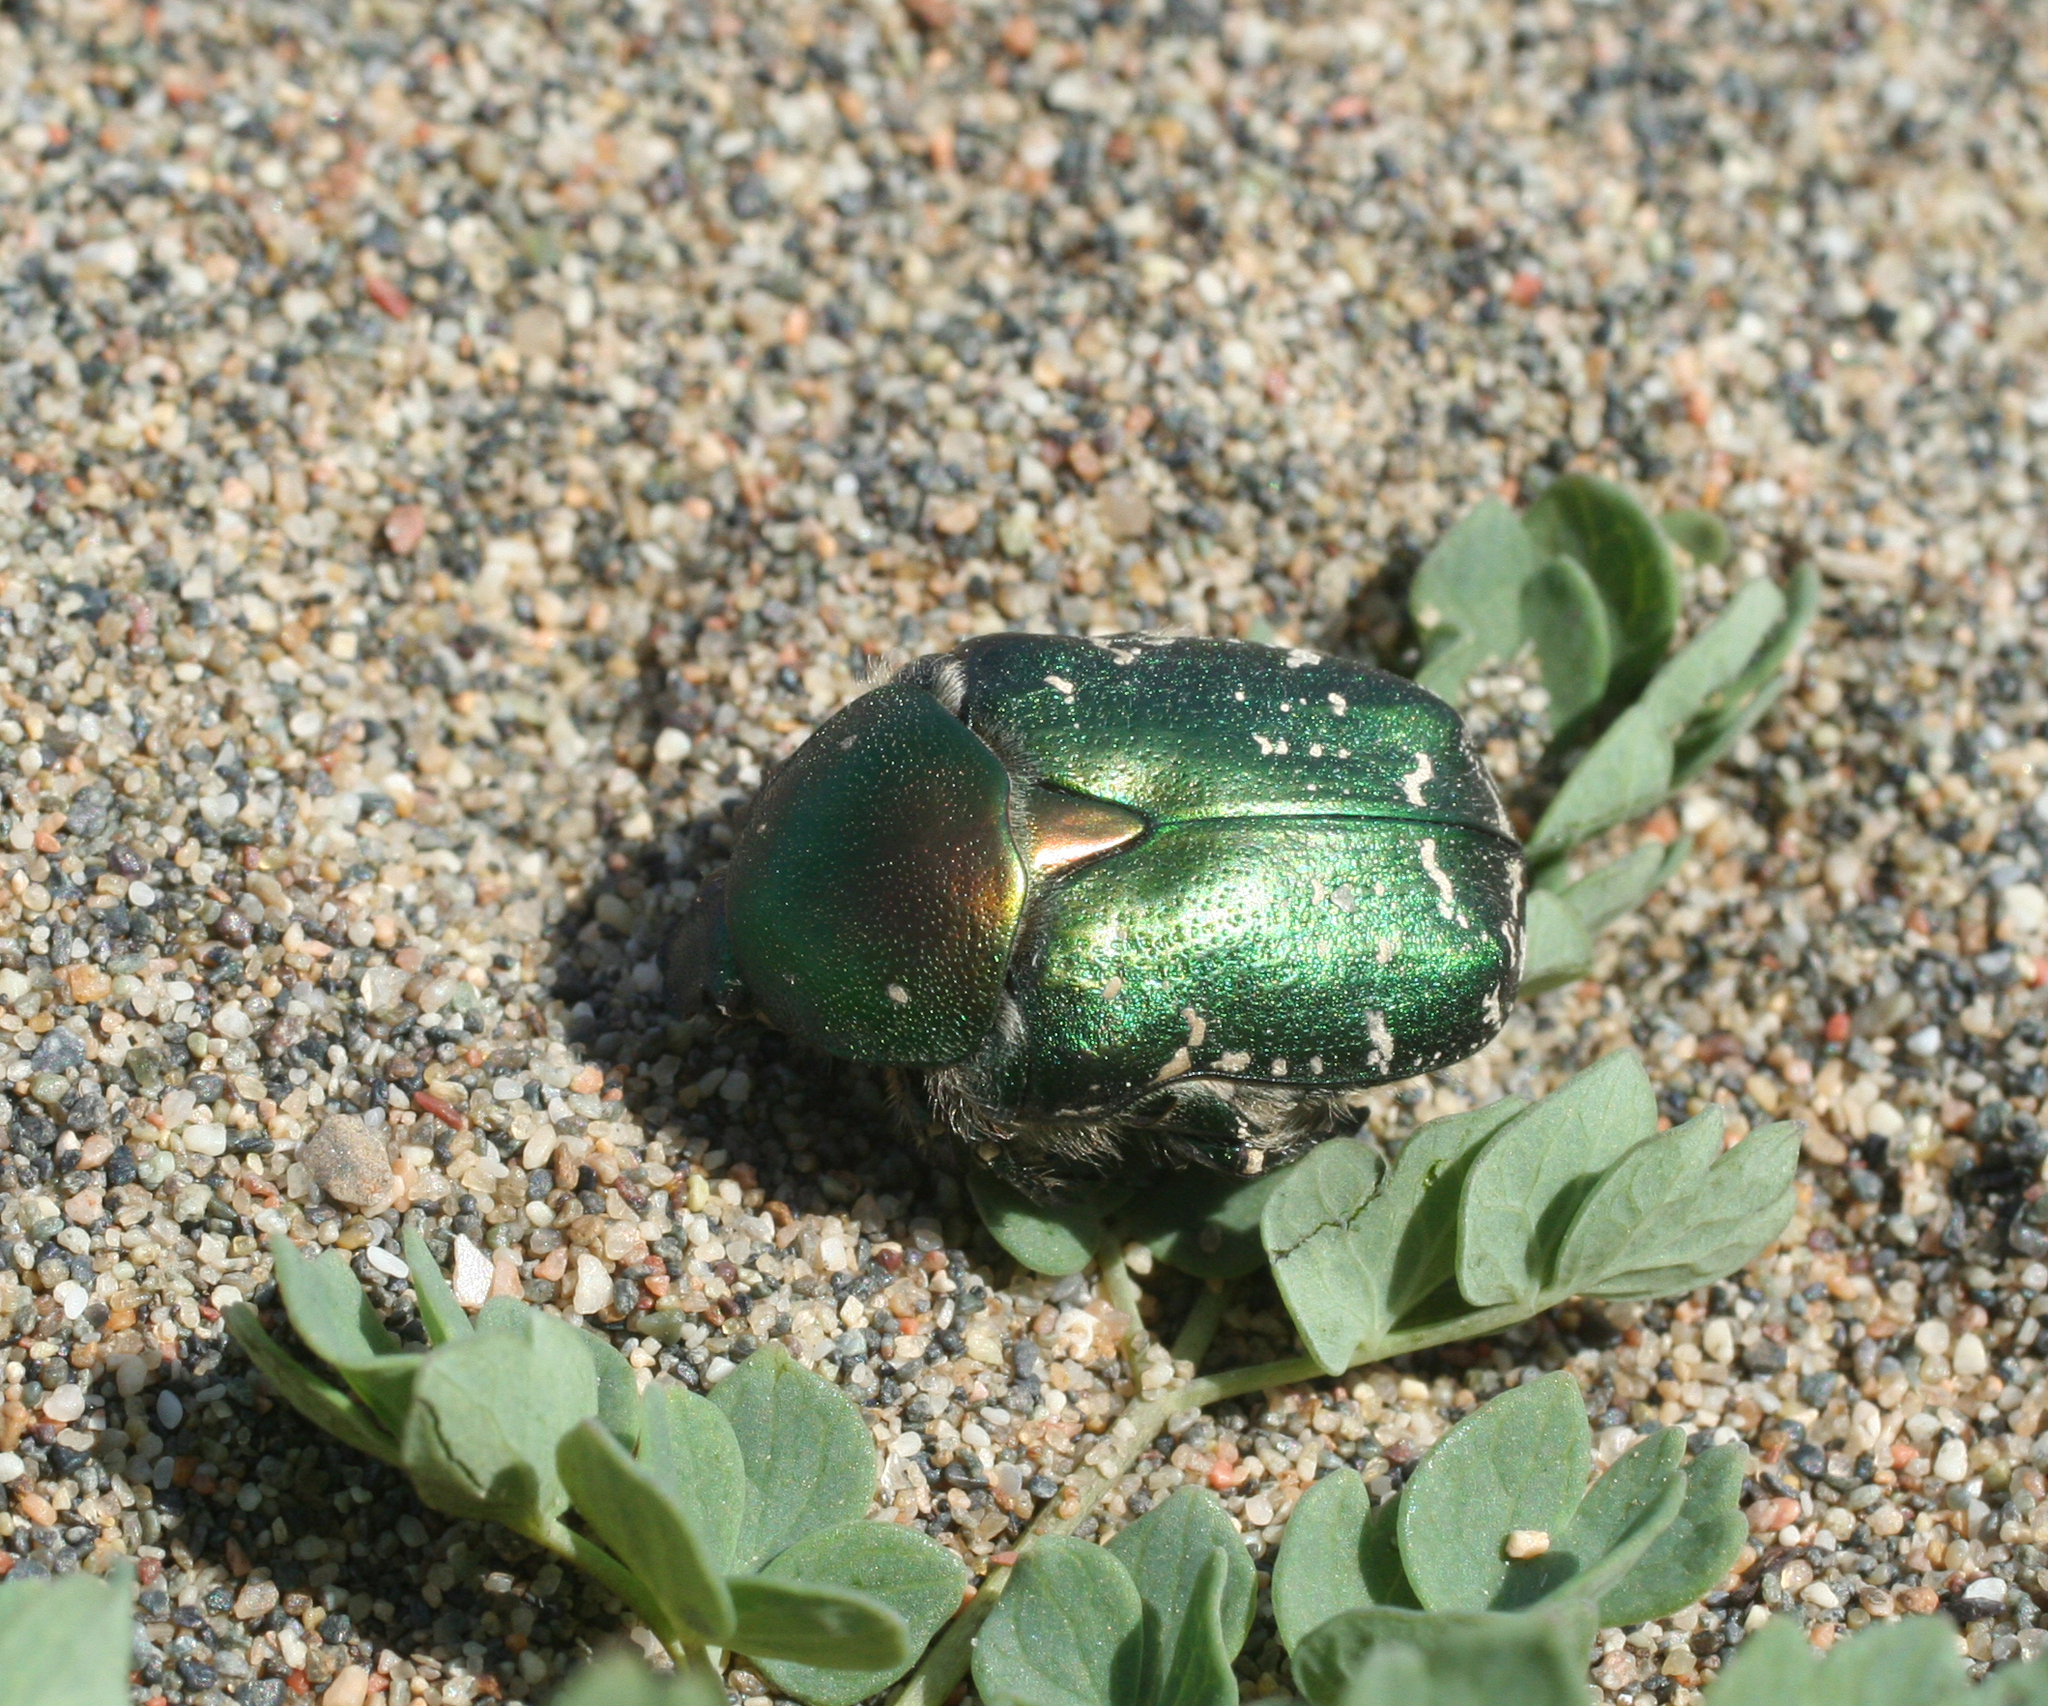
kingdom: Animalia
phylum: Arthropoda
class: Insecta
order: Coleoptera
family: Scarabaeidae
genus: Protaetia
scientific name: Protaetia ungarica
